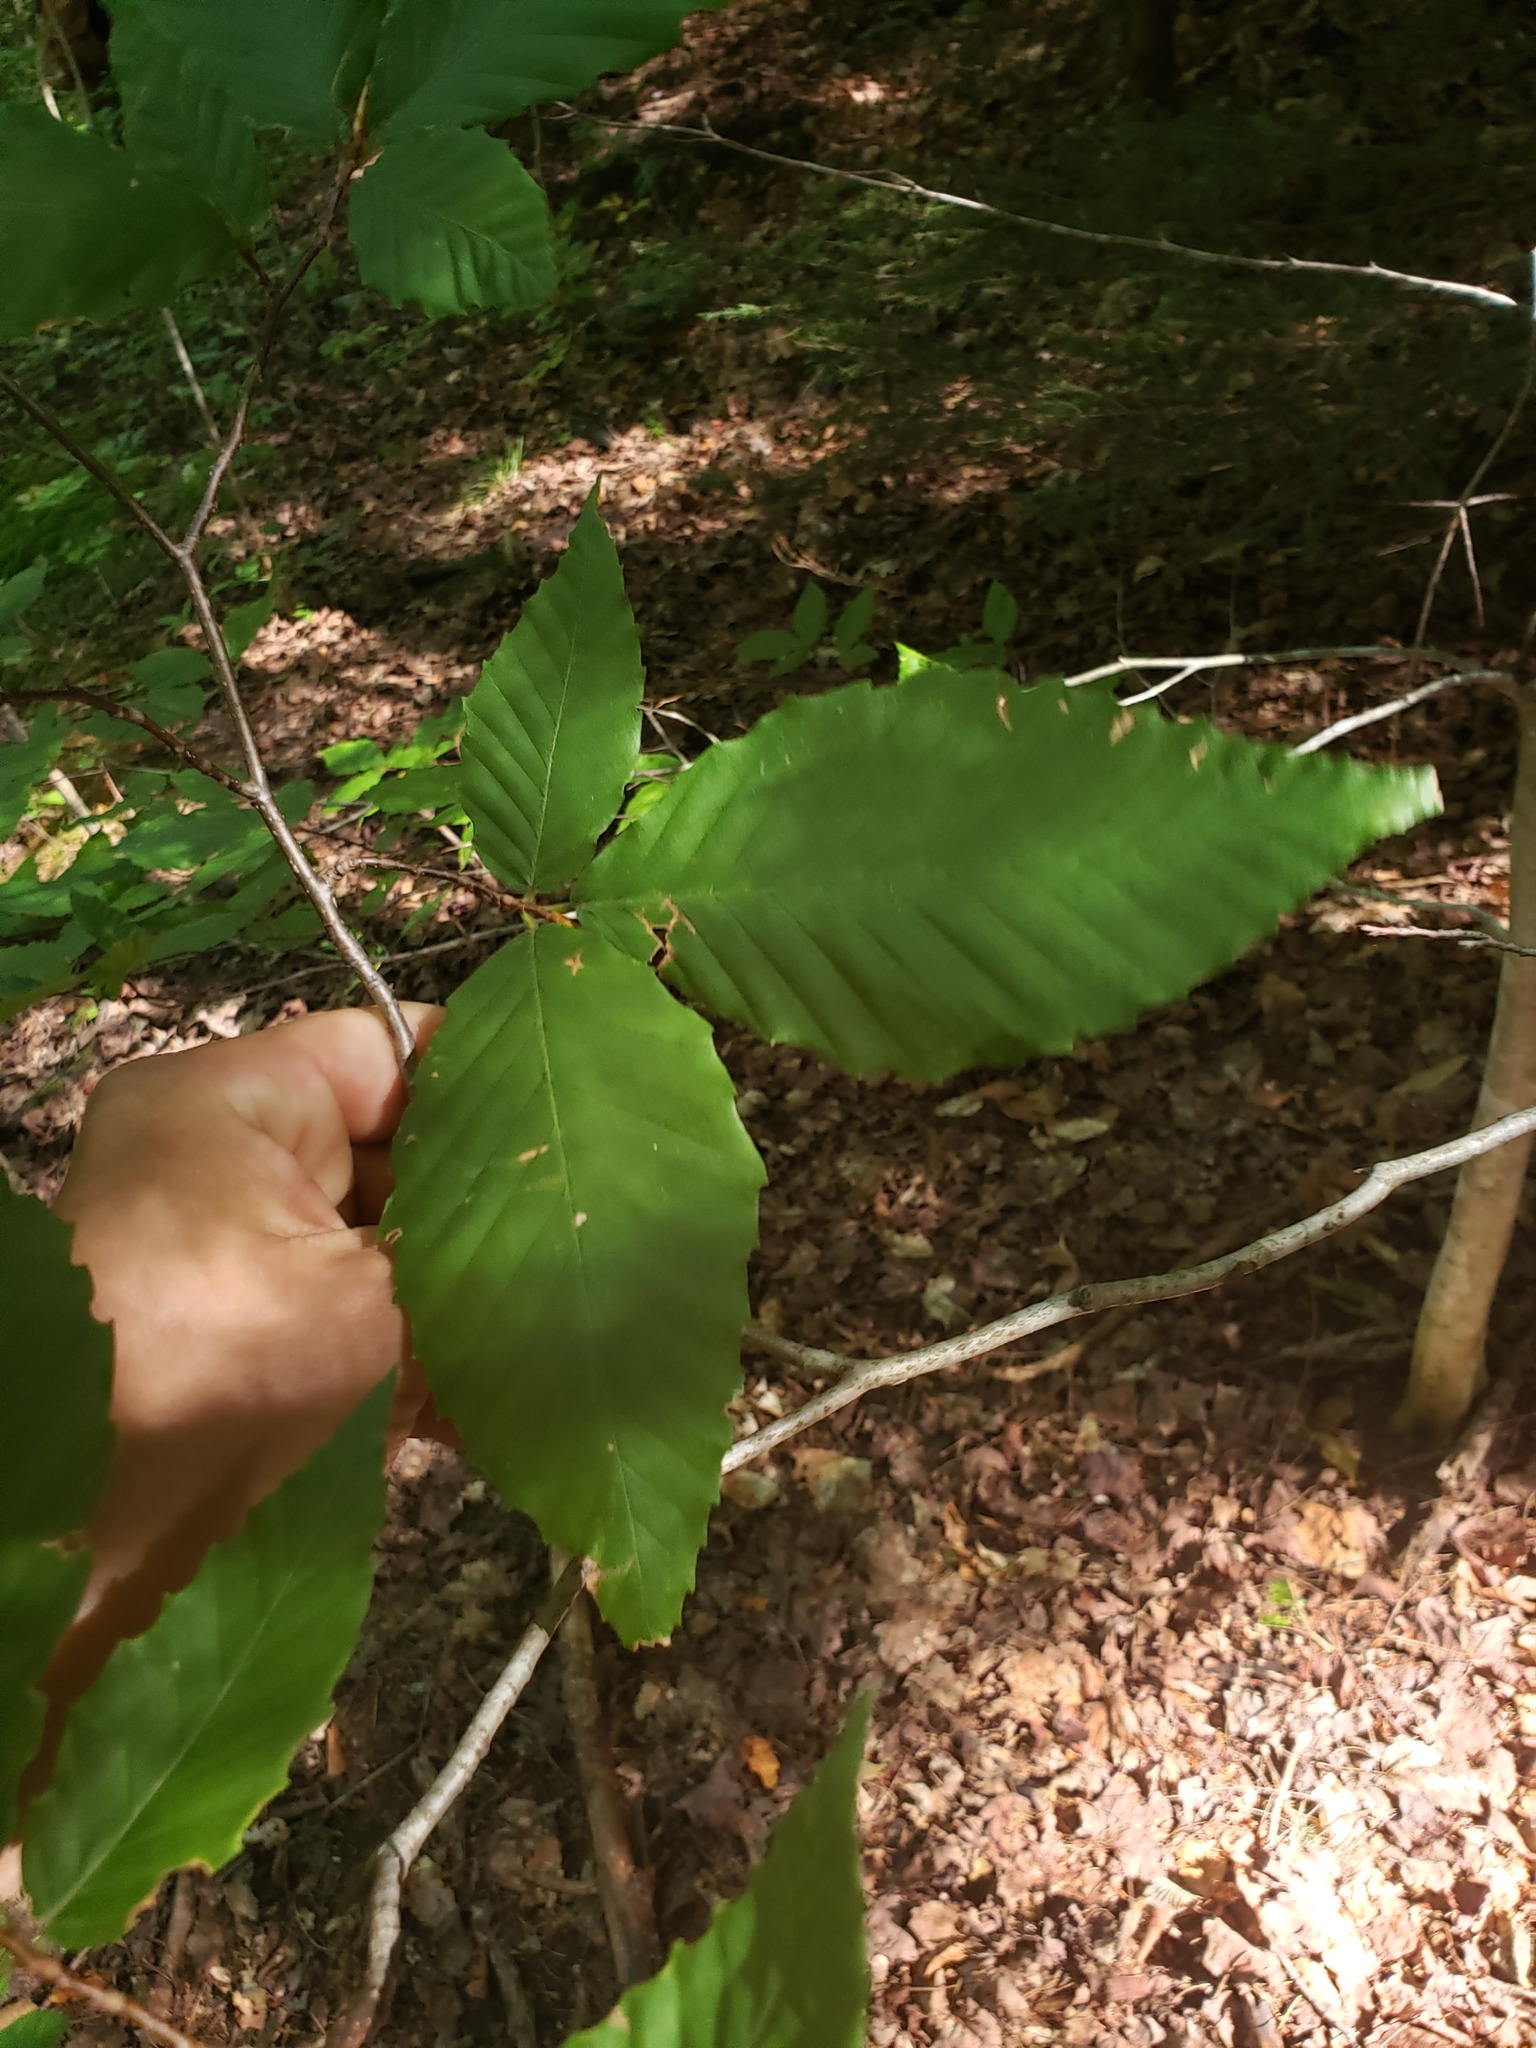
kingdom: Plantae
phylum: Tracheophyta
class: Magnoliopsida
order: Fagales
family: Fagaceae
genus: Fagus
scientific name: Fagus grandifolia
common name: American beech
